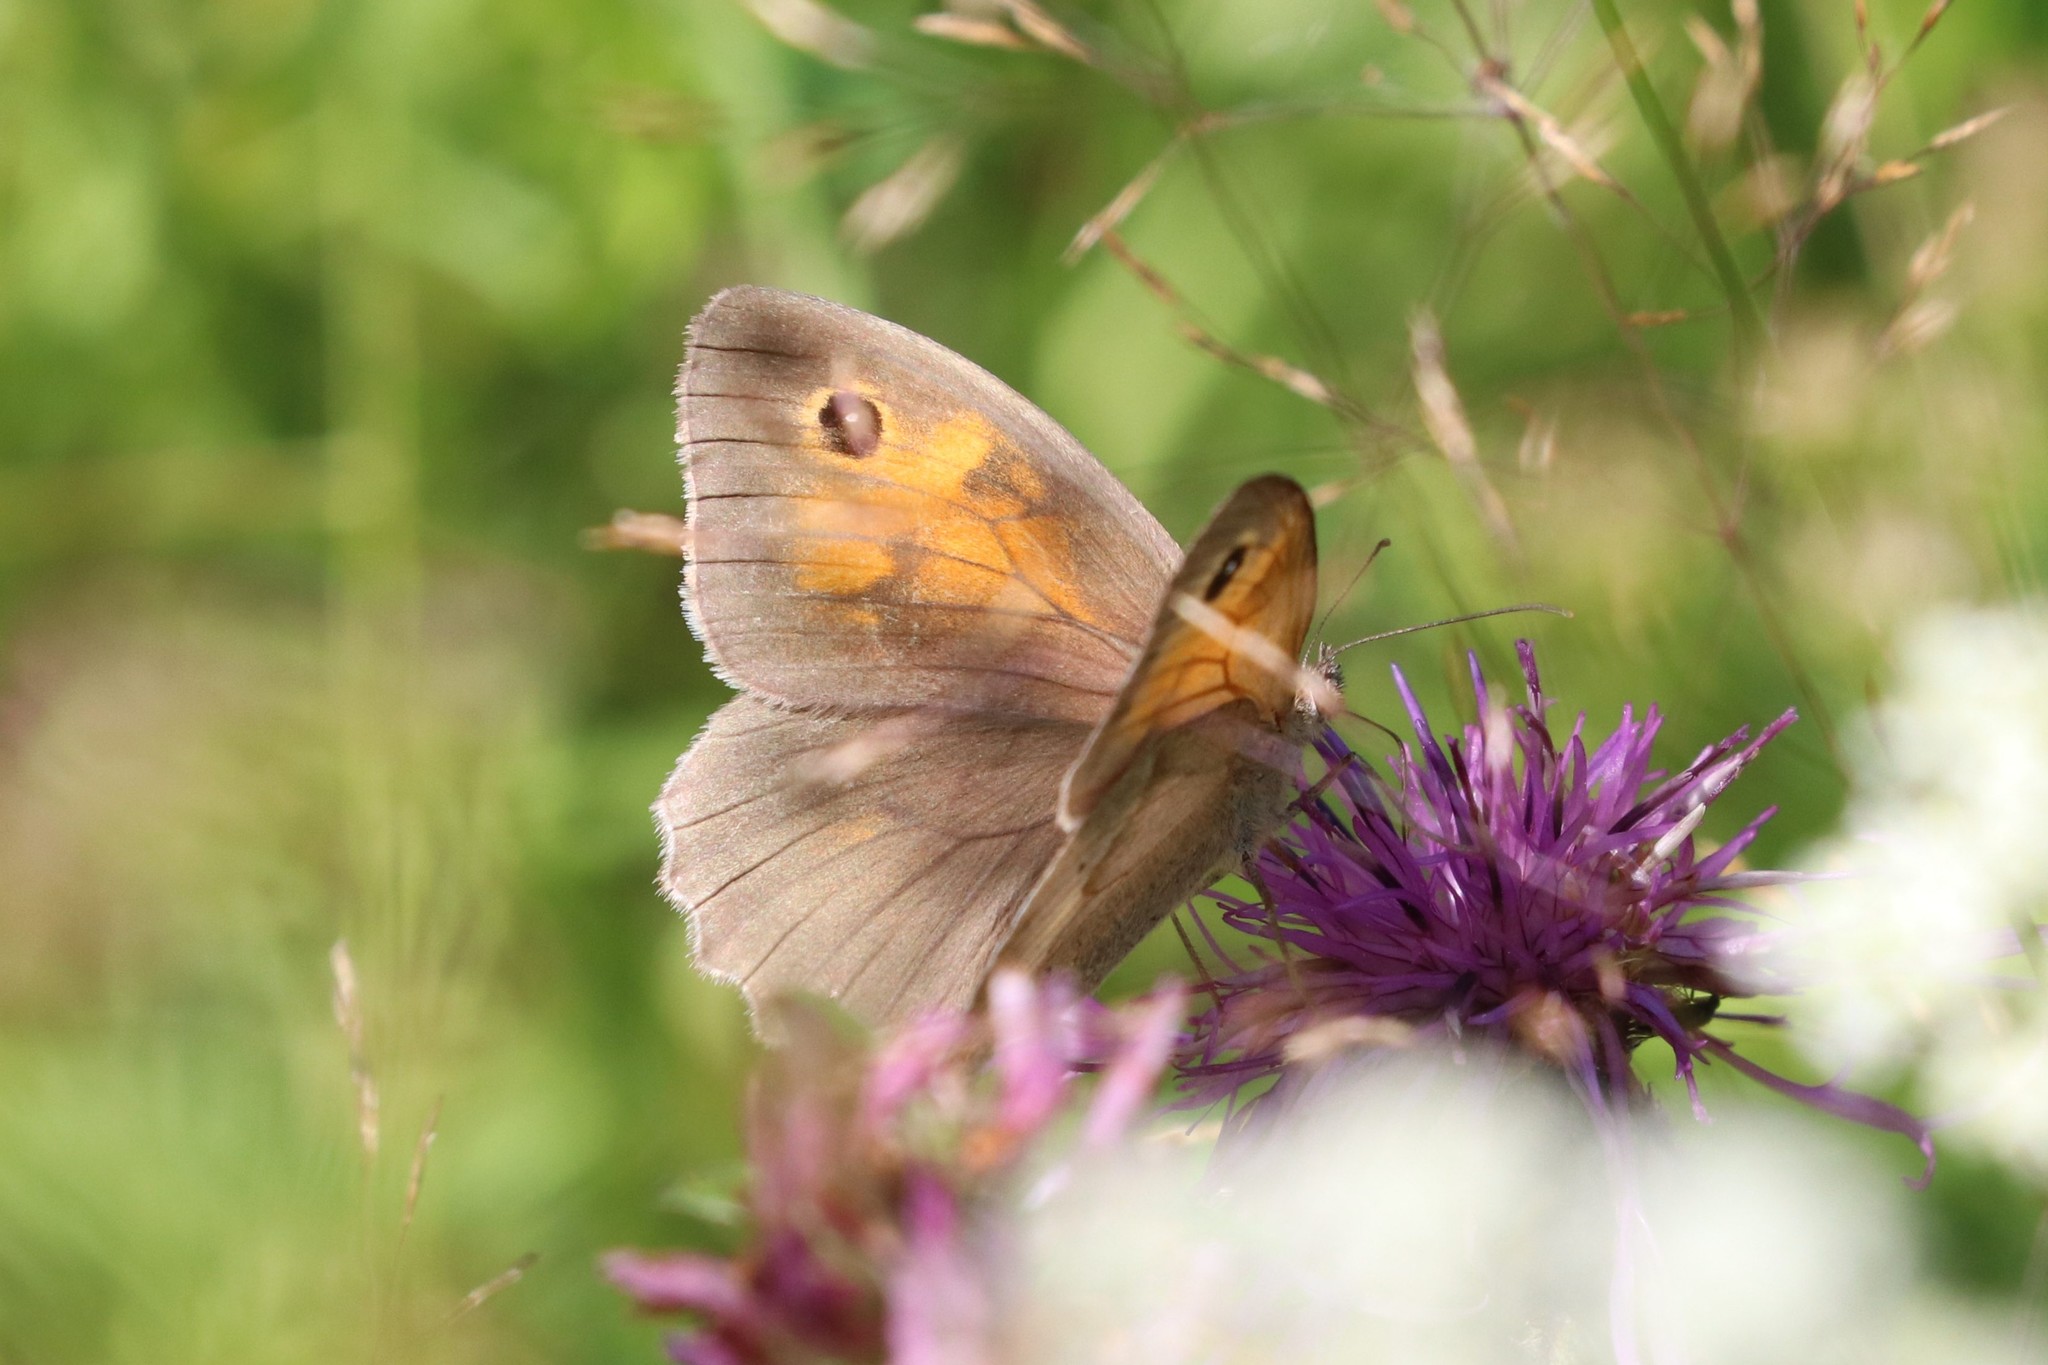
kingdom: Animalia
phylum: Arthropoda
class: Insecta
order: Lepidoptera
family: Nymphalidae
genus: Maniola
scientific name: Maniola jurtina
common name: Meadow brown
